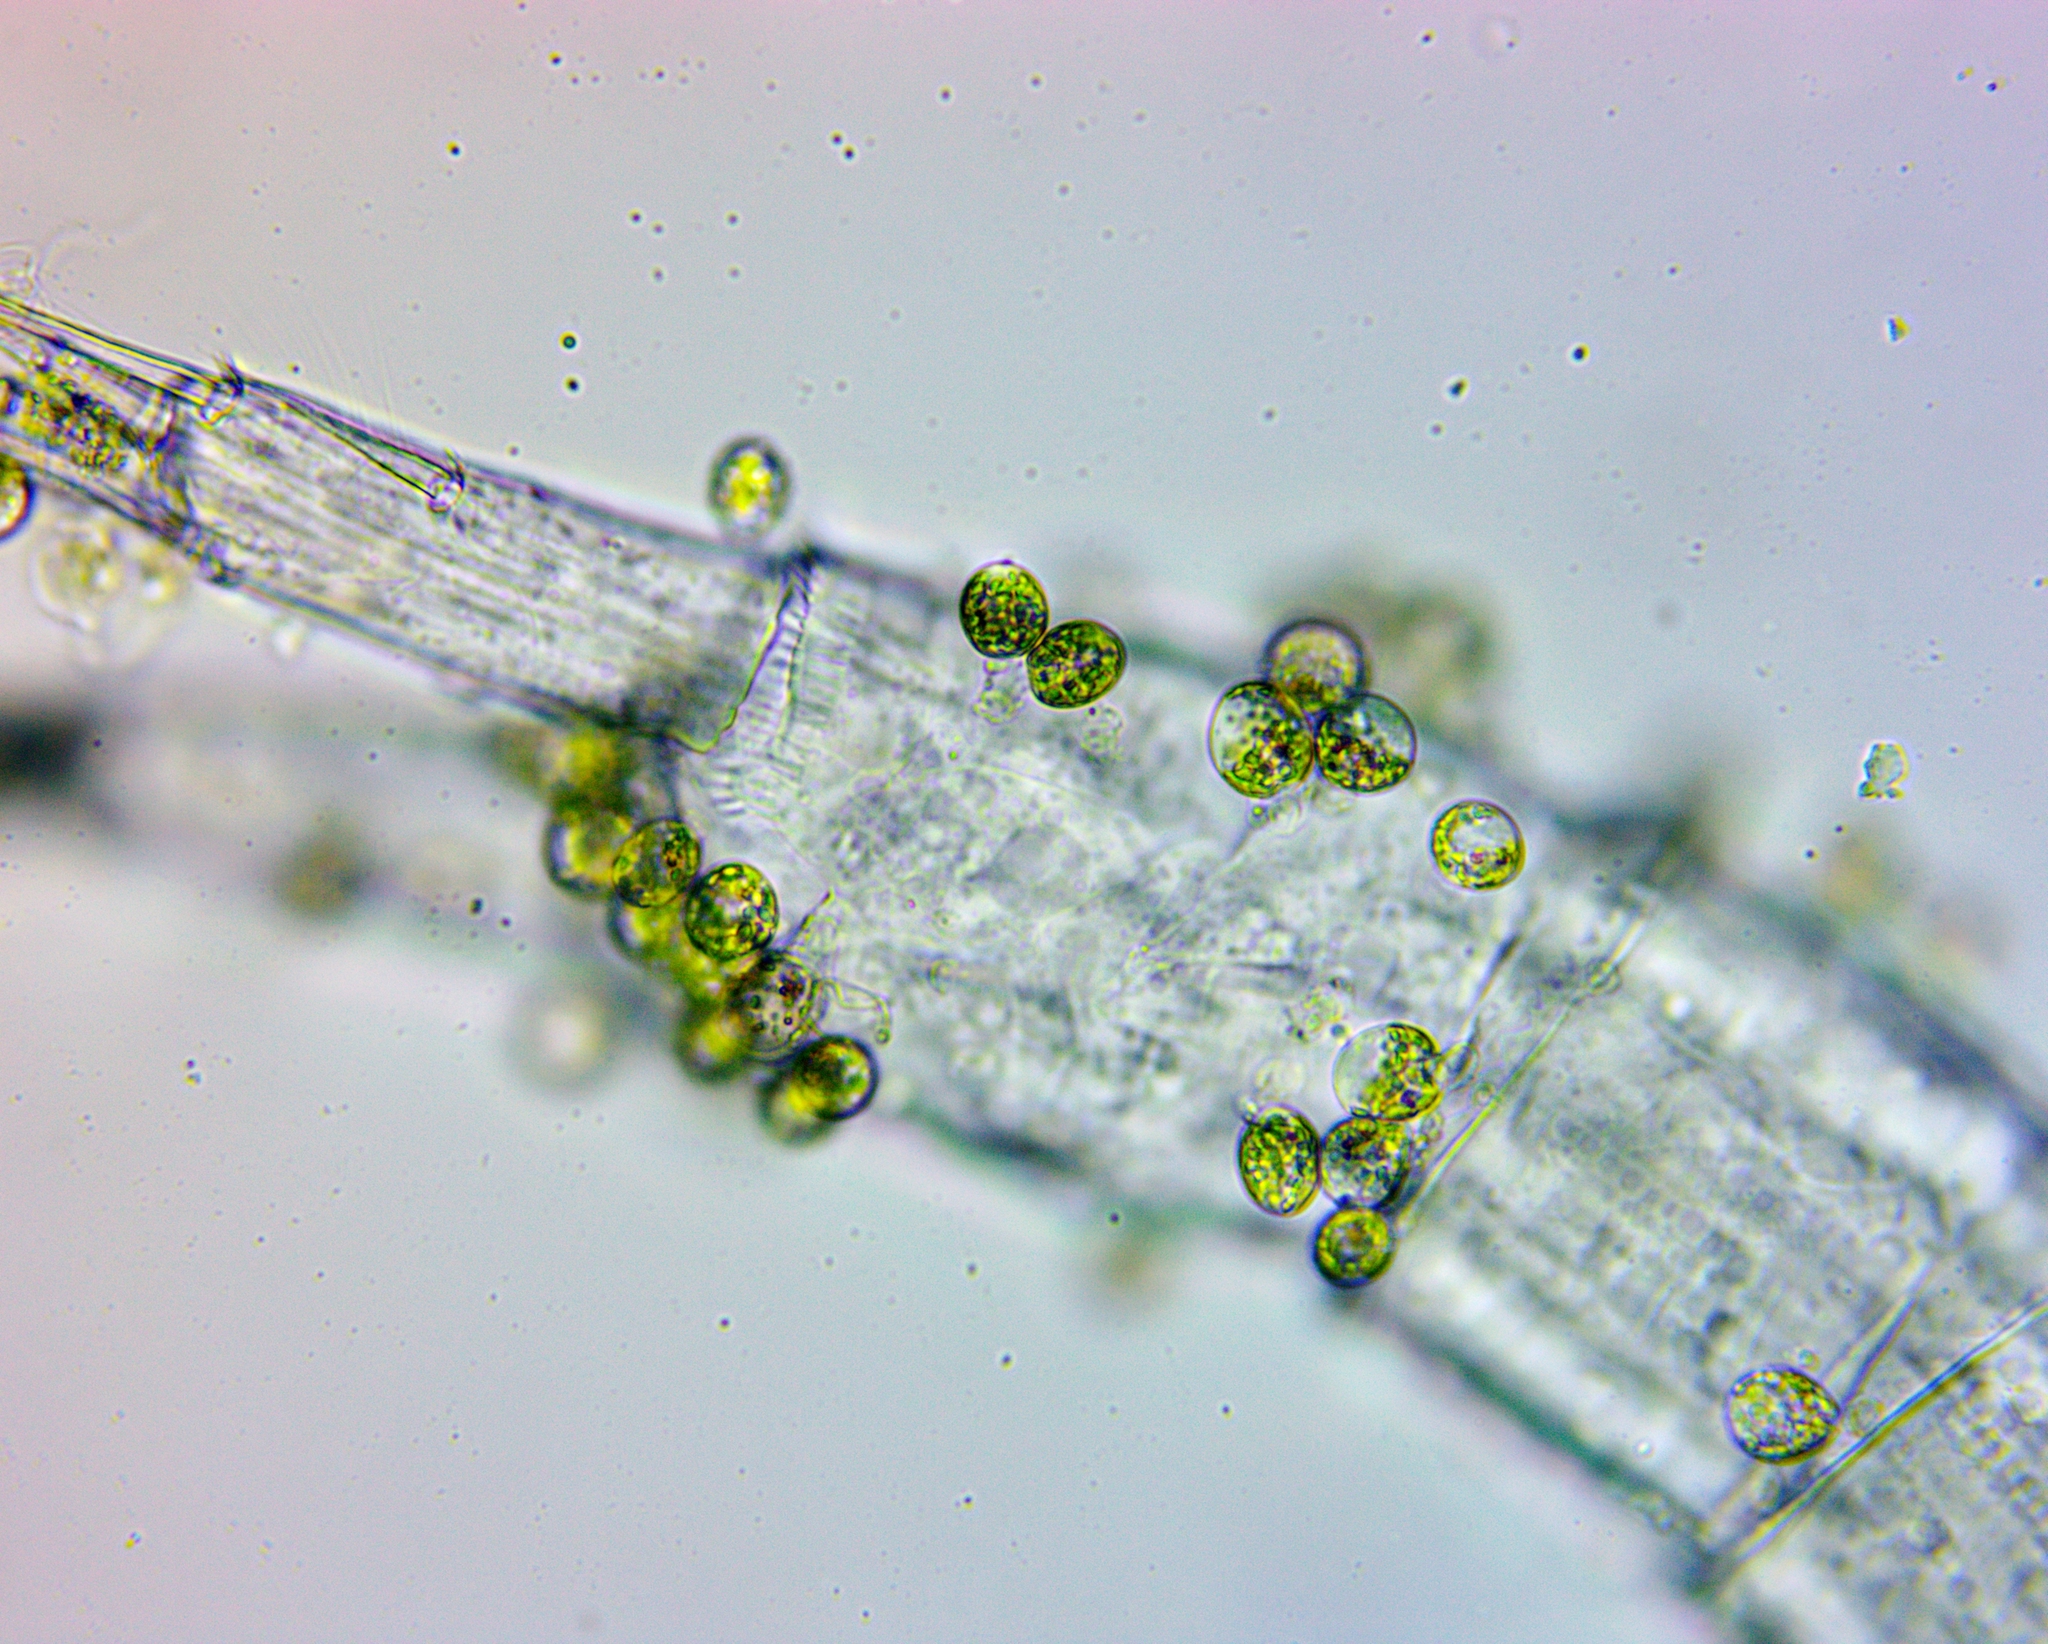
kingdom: Protozoa
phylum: Euglenozoa
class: Euglenoidea
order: Euglenida
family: Euglenaceae
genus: Colacium
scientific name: Colacium simplex
